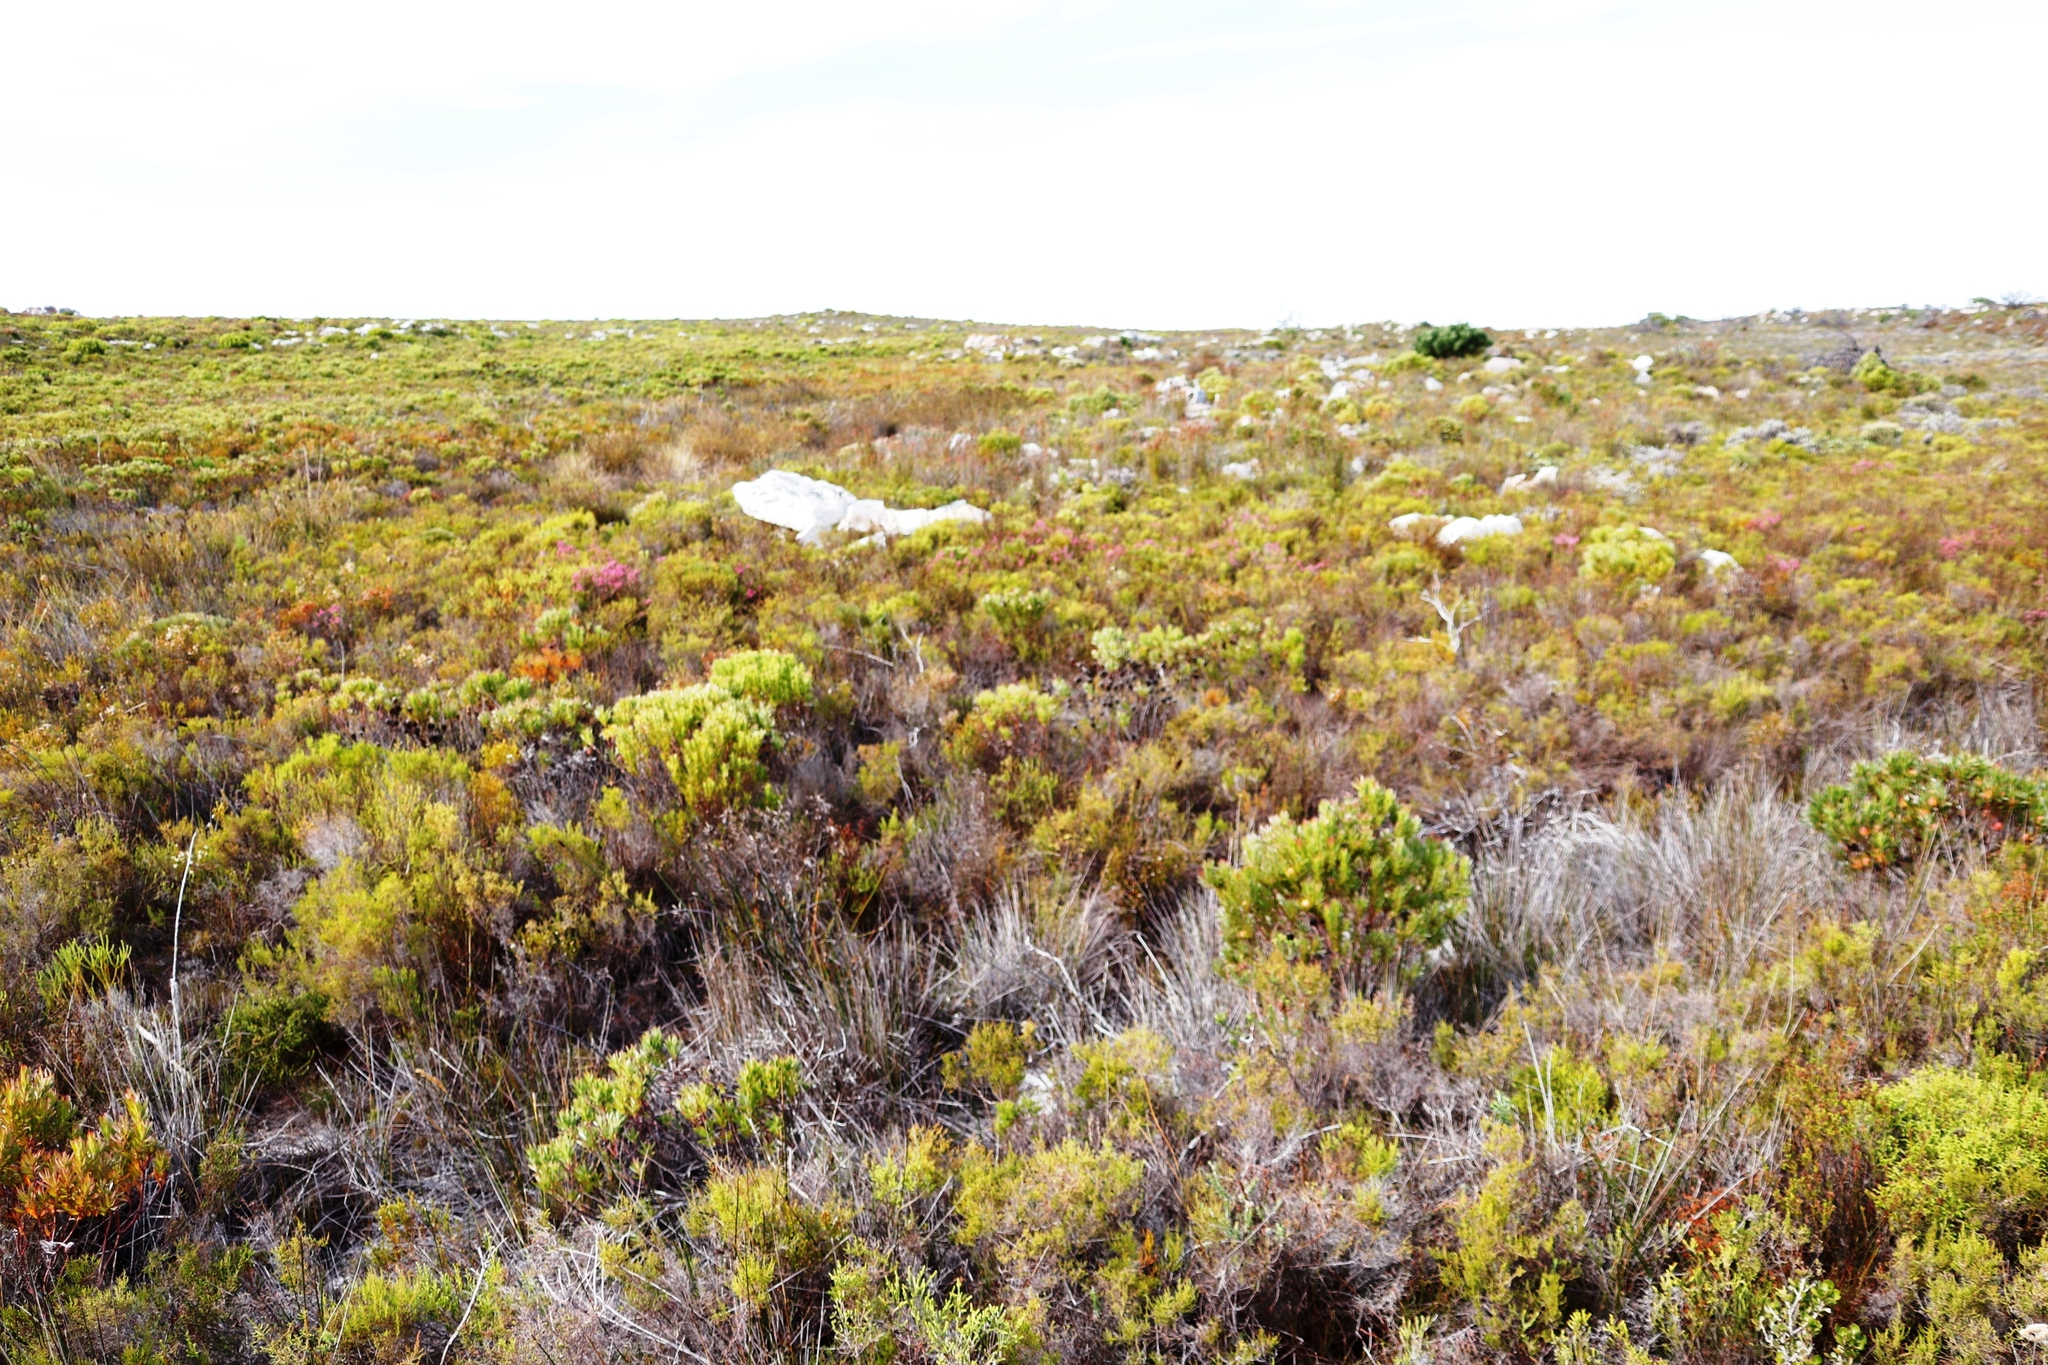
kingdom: Plantae
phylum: Tracheophyta
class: Magnoliopsida
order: Proteales
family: Proteaceae
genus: Leucadendron
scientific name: Leucadendron xanthoconus
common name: Sickle-leaf conebush
